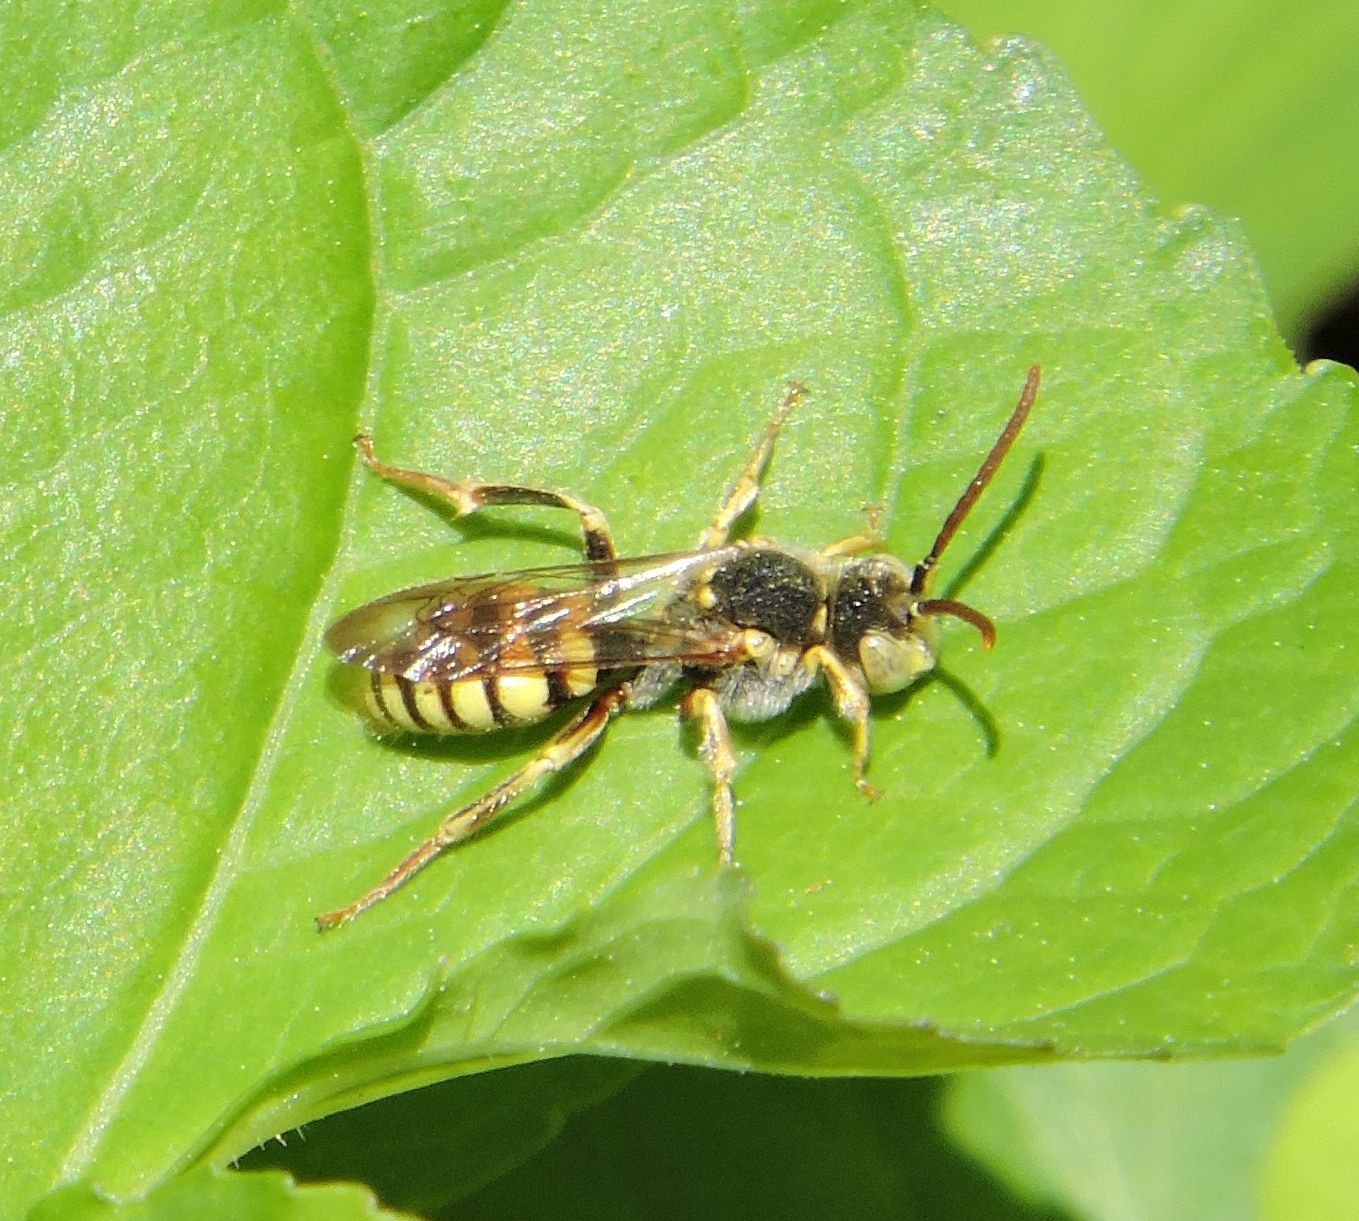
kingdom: Animalia
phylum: Arthropoda
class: Insecta
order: Hymenoptera
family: Apidae
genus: Nomada
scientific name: Nomada luteoloides
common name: Black-and-yellow nomad bee
